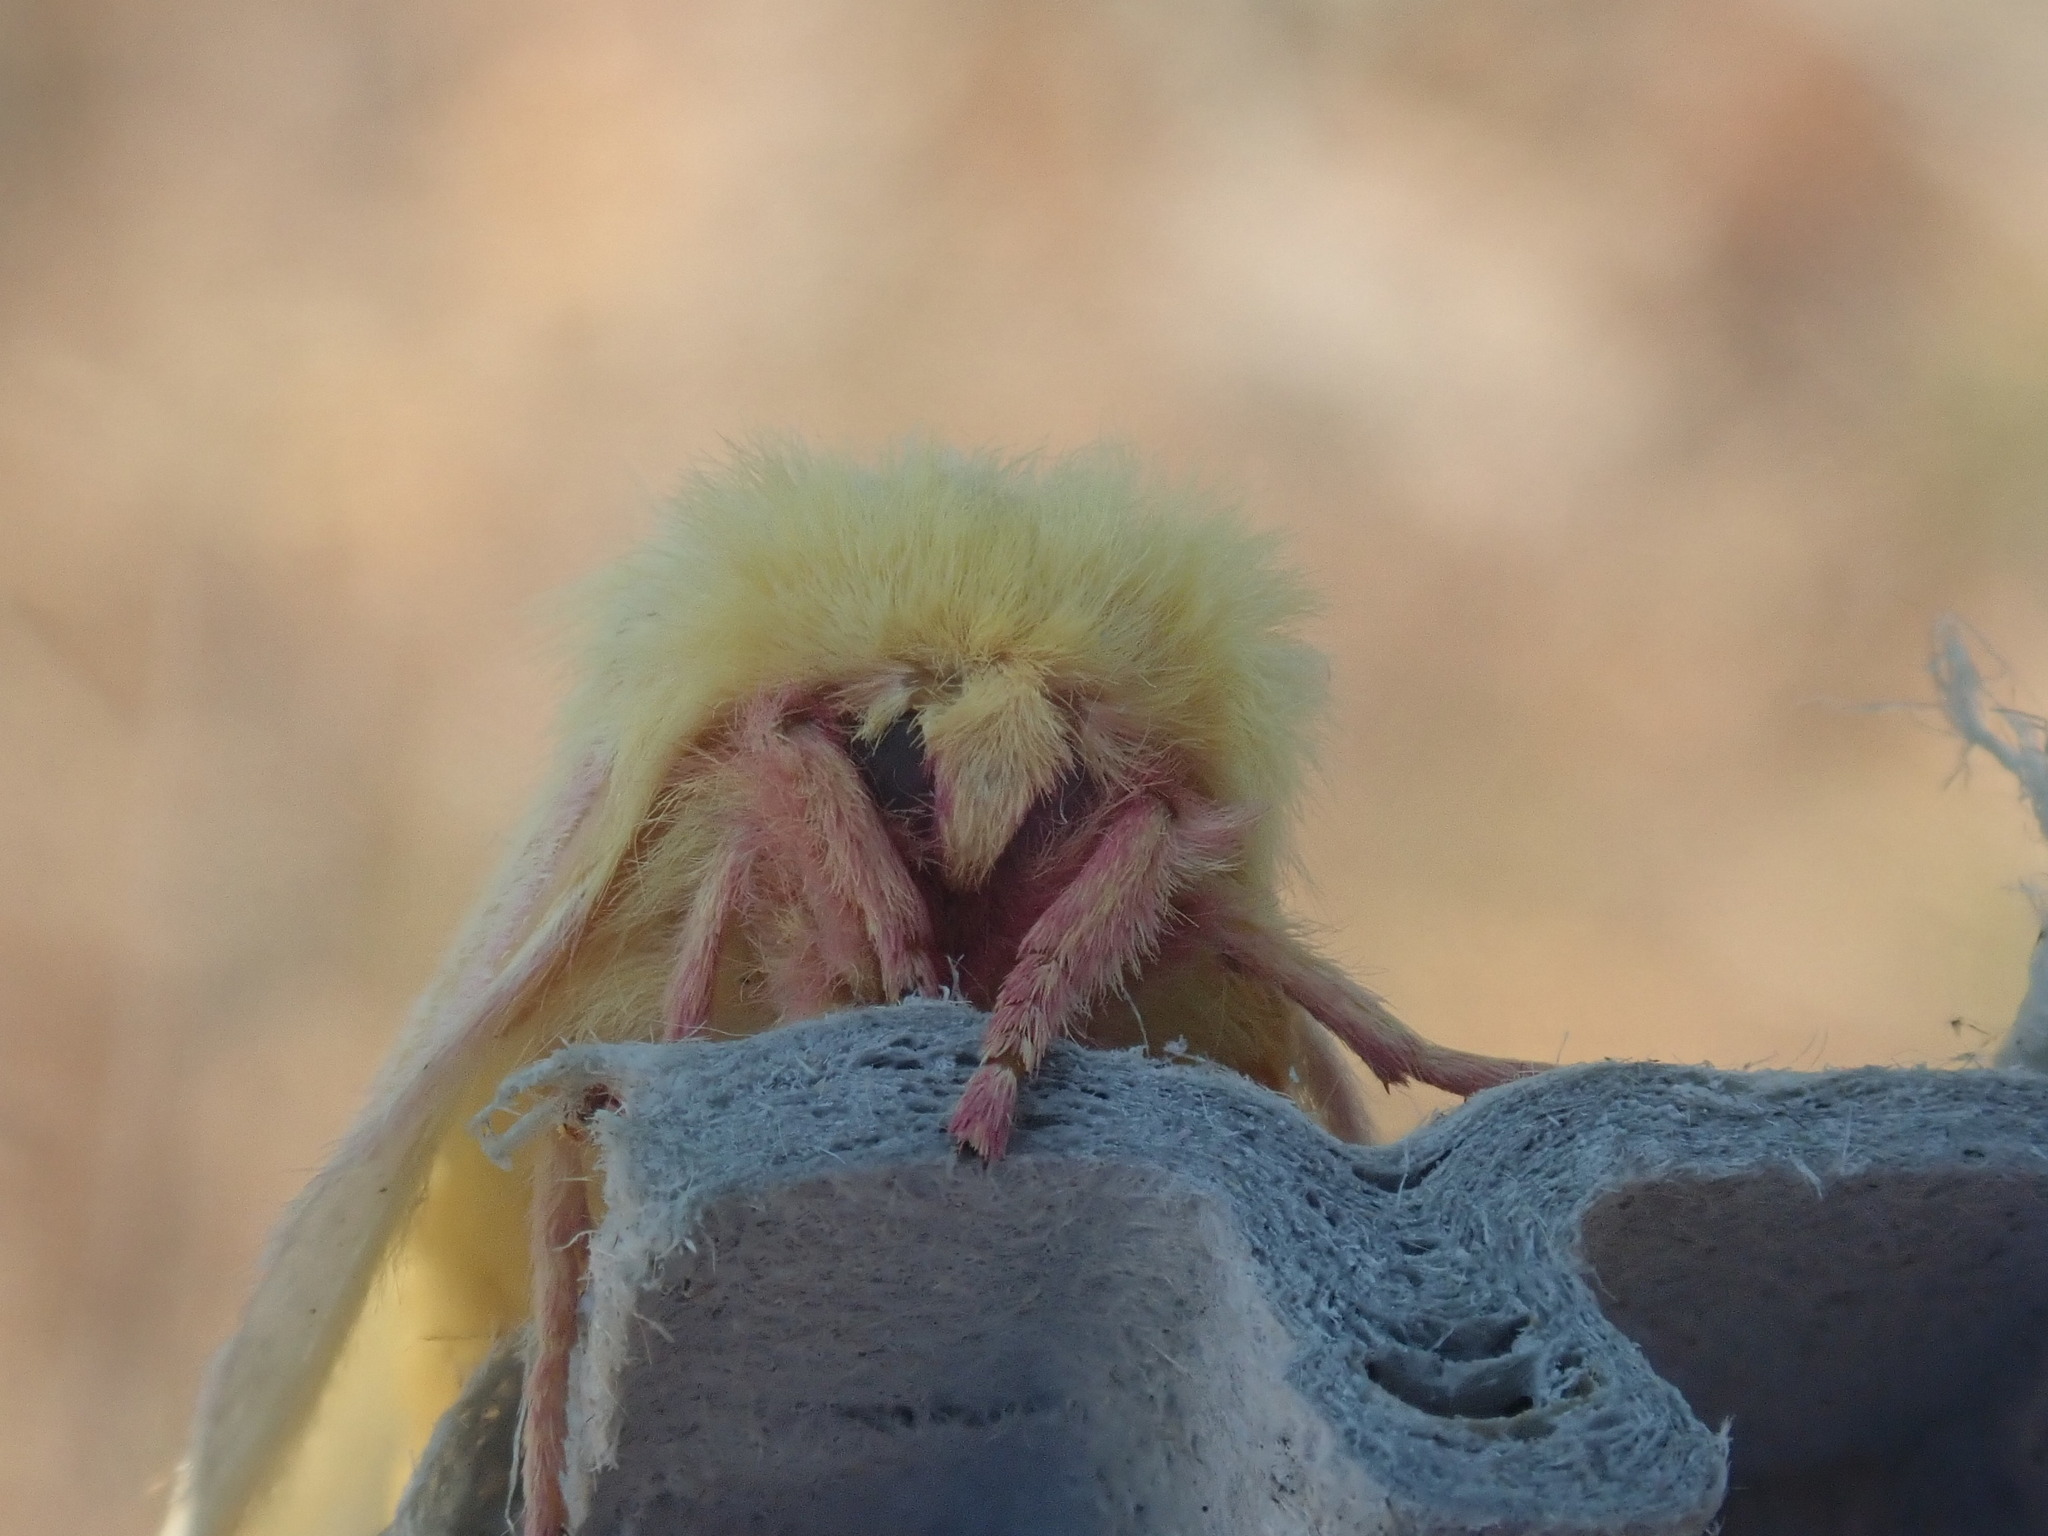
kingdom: Animalia
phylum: Arthropoda
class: Insecta
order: Lepidoptera
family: Saturniidae
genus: Dryocampa
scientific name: Dryocampa rubicunda
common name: Rosy maple moth
